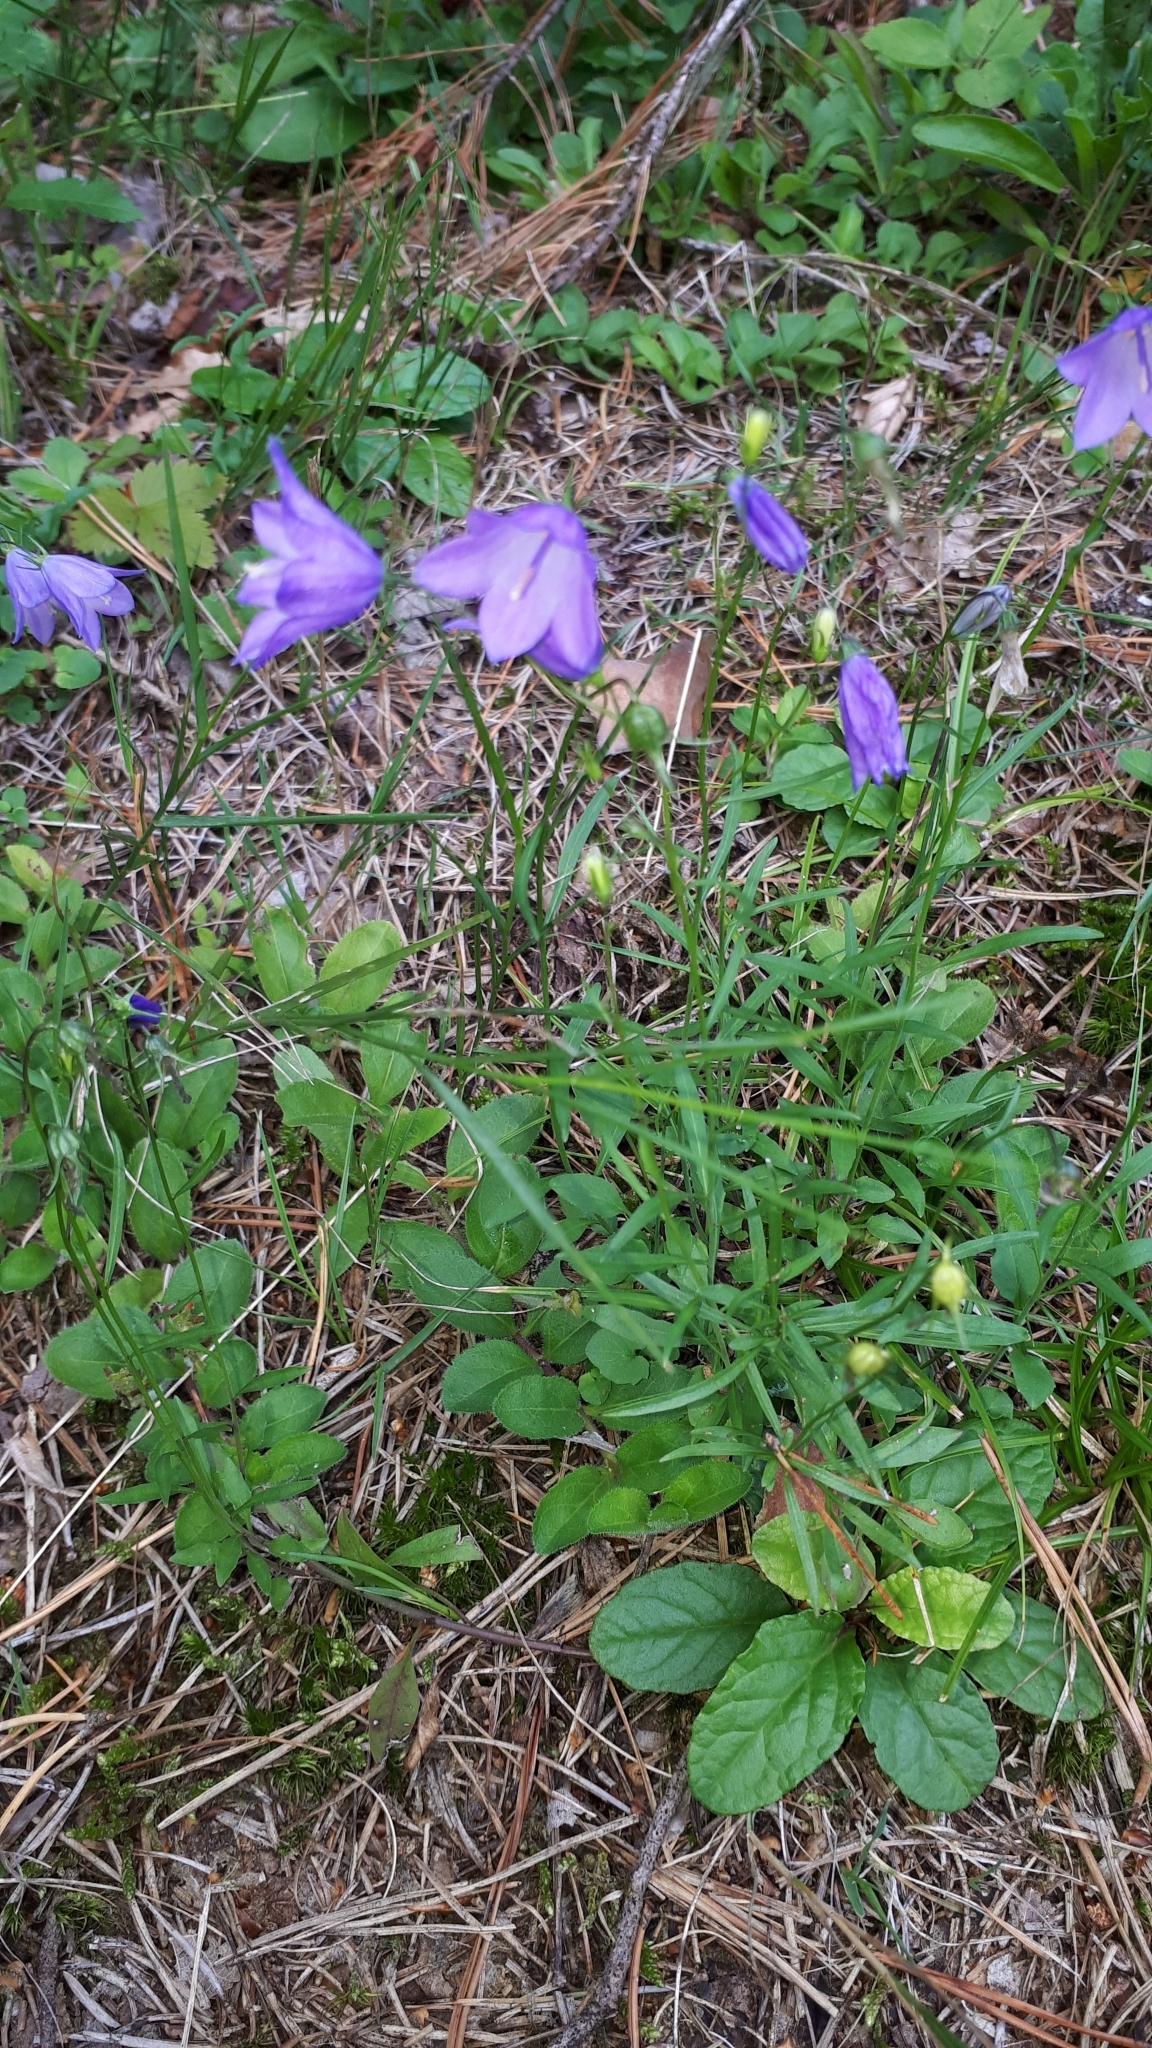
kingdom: Plantae
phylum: Tracheophyta
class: Magnoliopsida
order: Asterales
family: Campanulaceae
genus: Campanula
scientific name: Campanula rotundifolia
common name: Harebell
